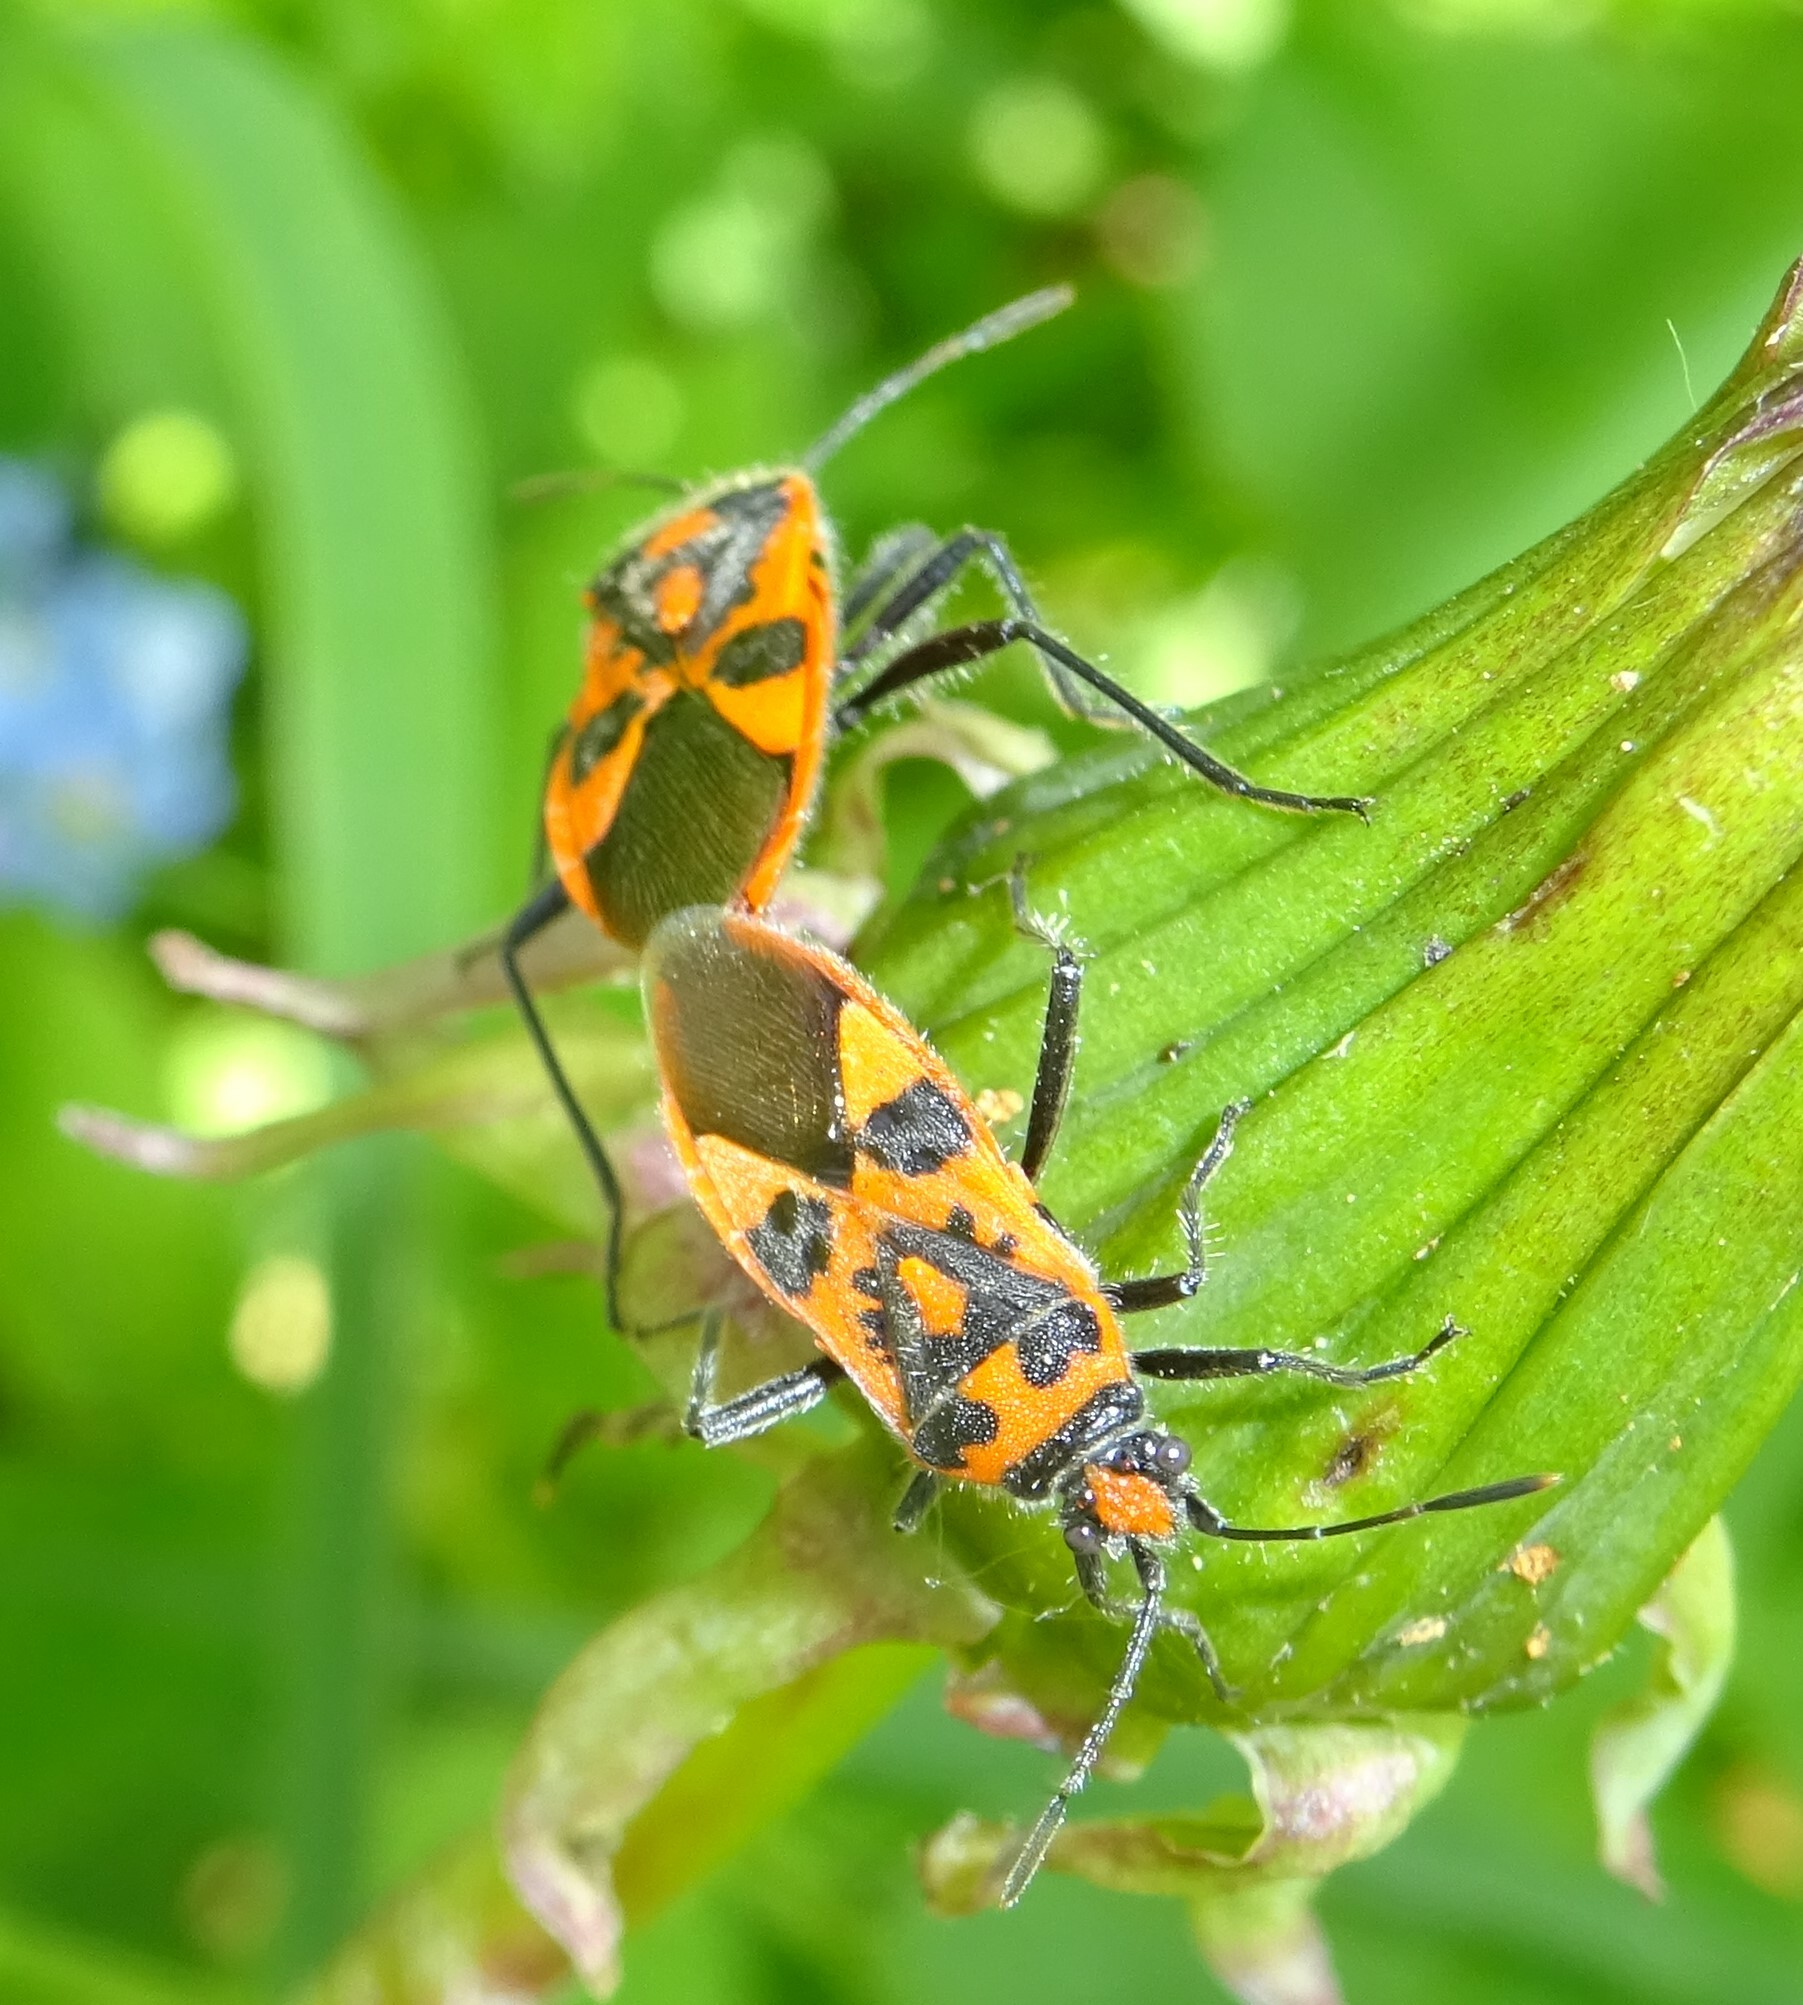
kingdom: Animalia
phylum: Arthropoda
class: Insecta
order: Hemiptera
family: Rhopalidae
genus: Corizus
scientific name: Corizus hyoscyami
